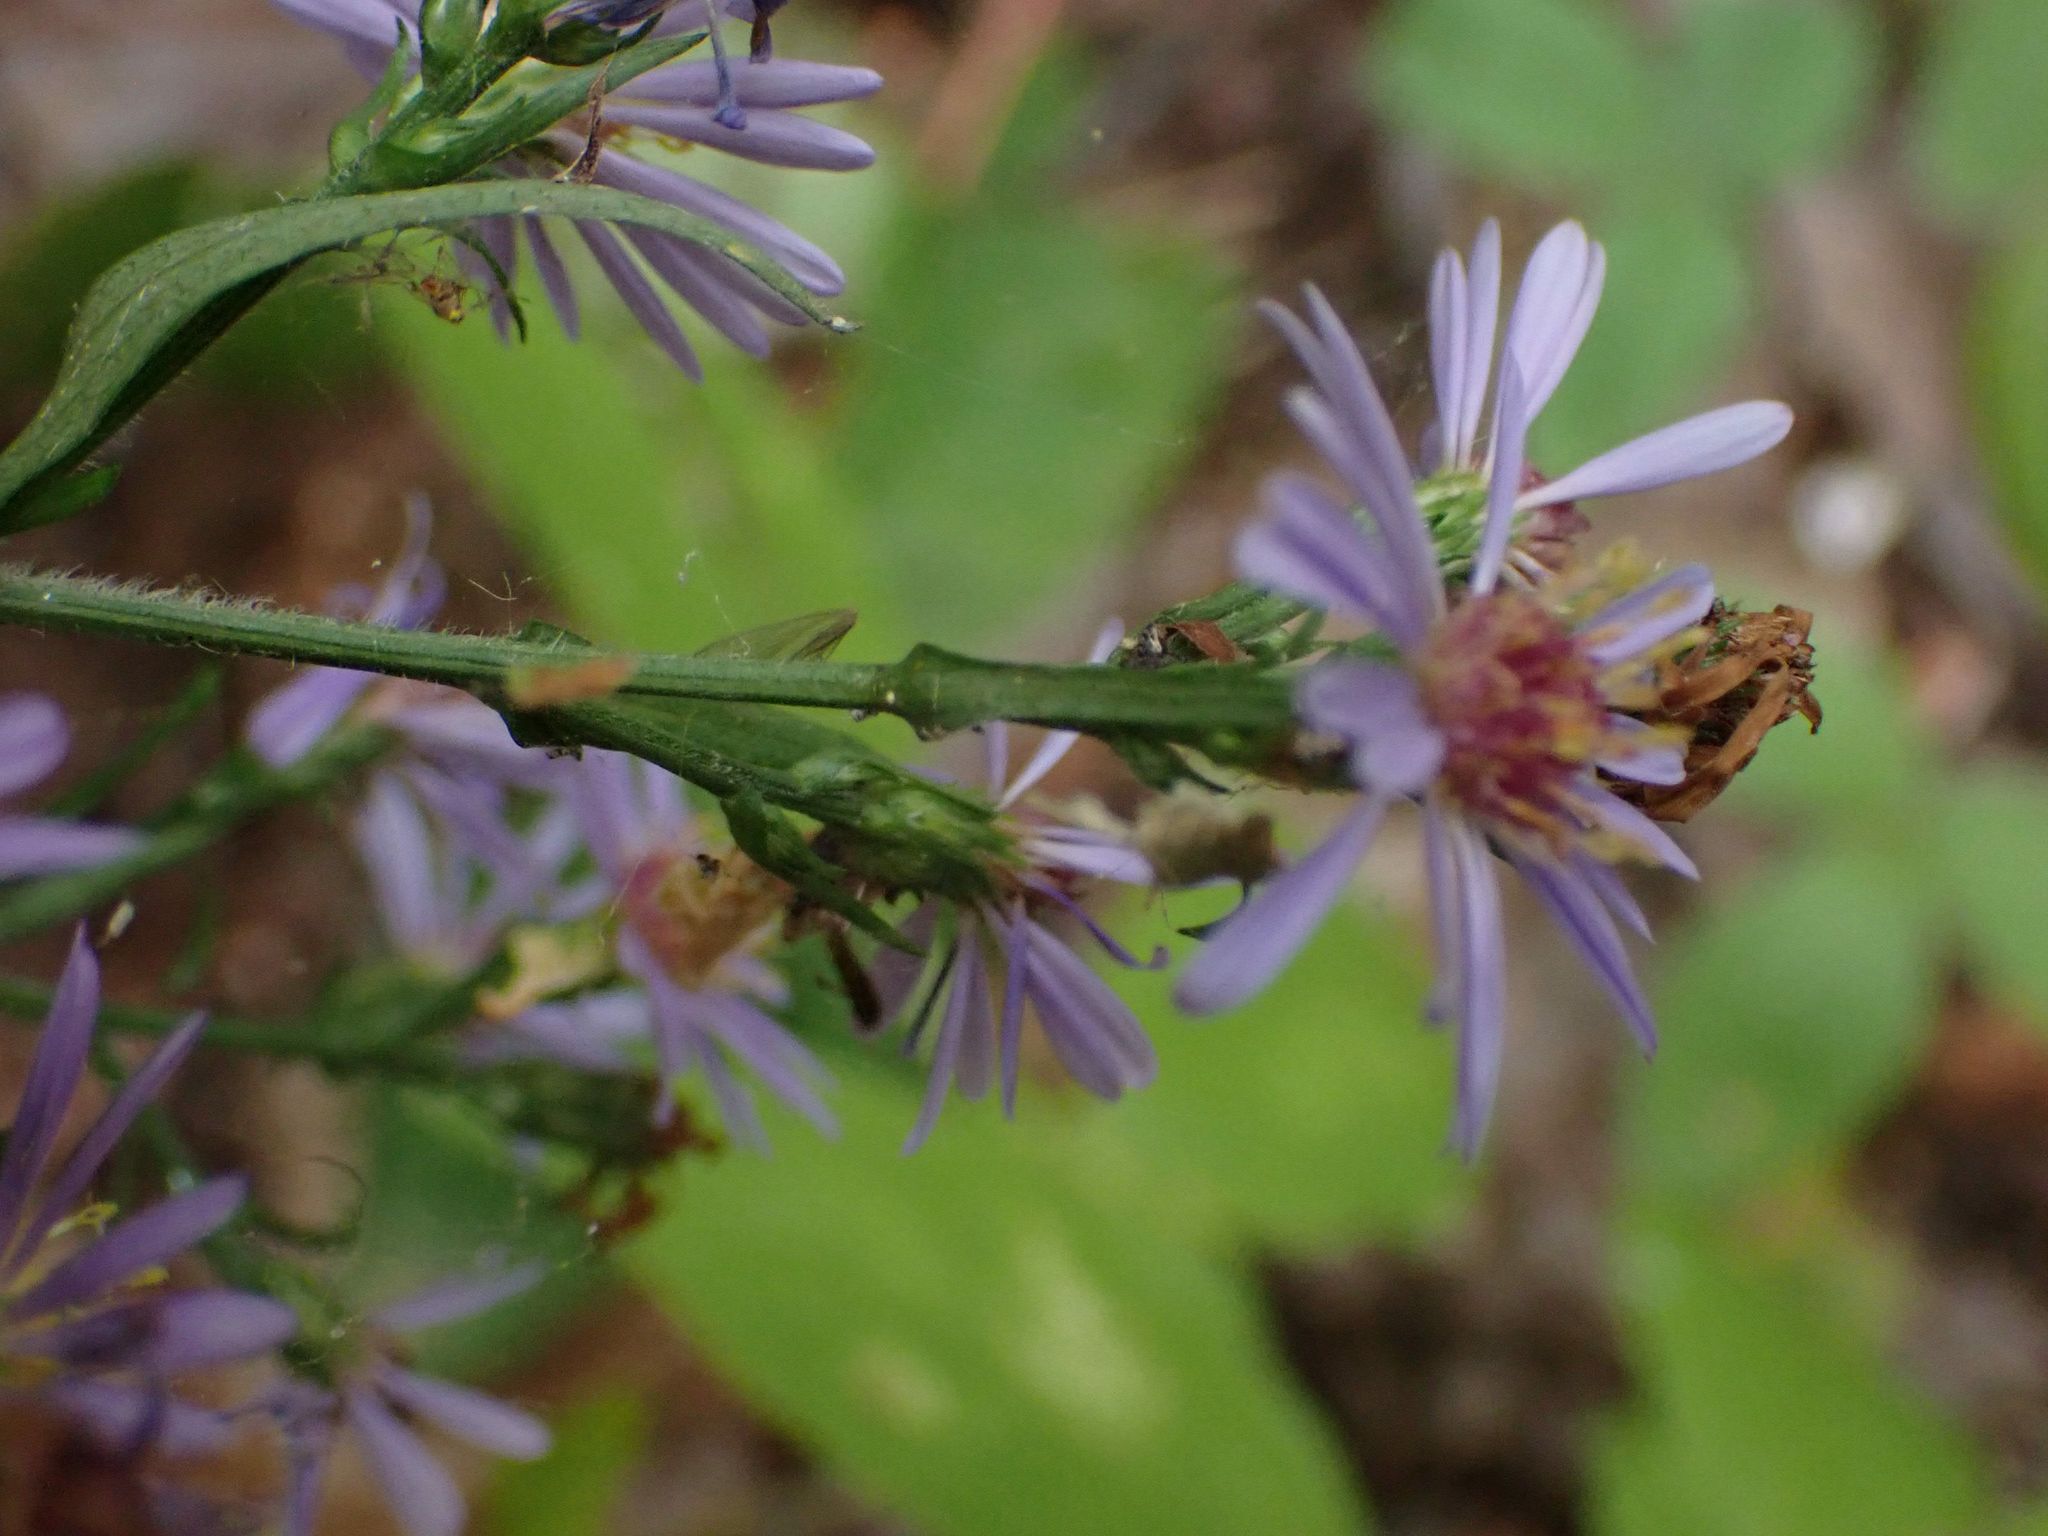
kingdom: Plantae
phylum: Tracheophyta
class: Magnoliopsida
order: Asterales
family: Asteraceae
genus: Symphyotrichum
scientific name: Symphyotrichum ciliolatum
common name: Fringed blue aster
